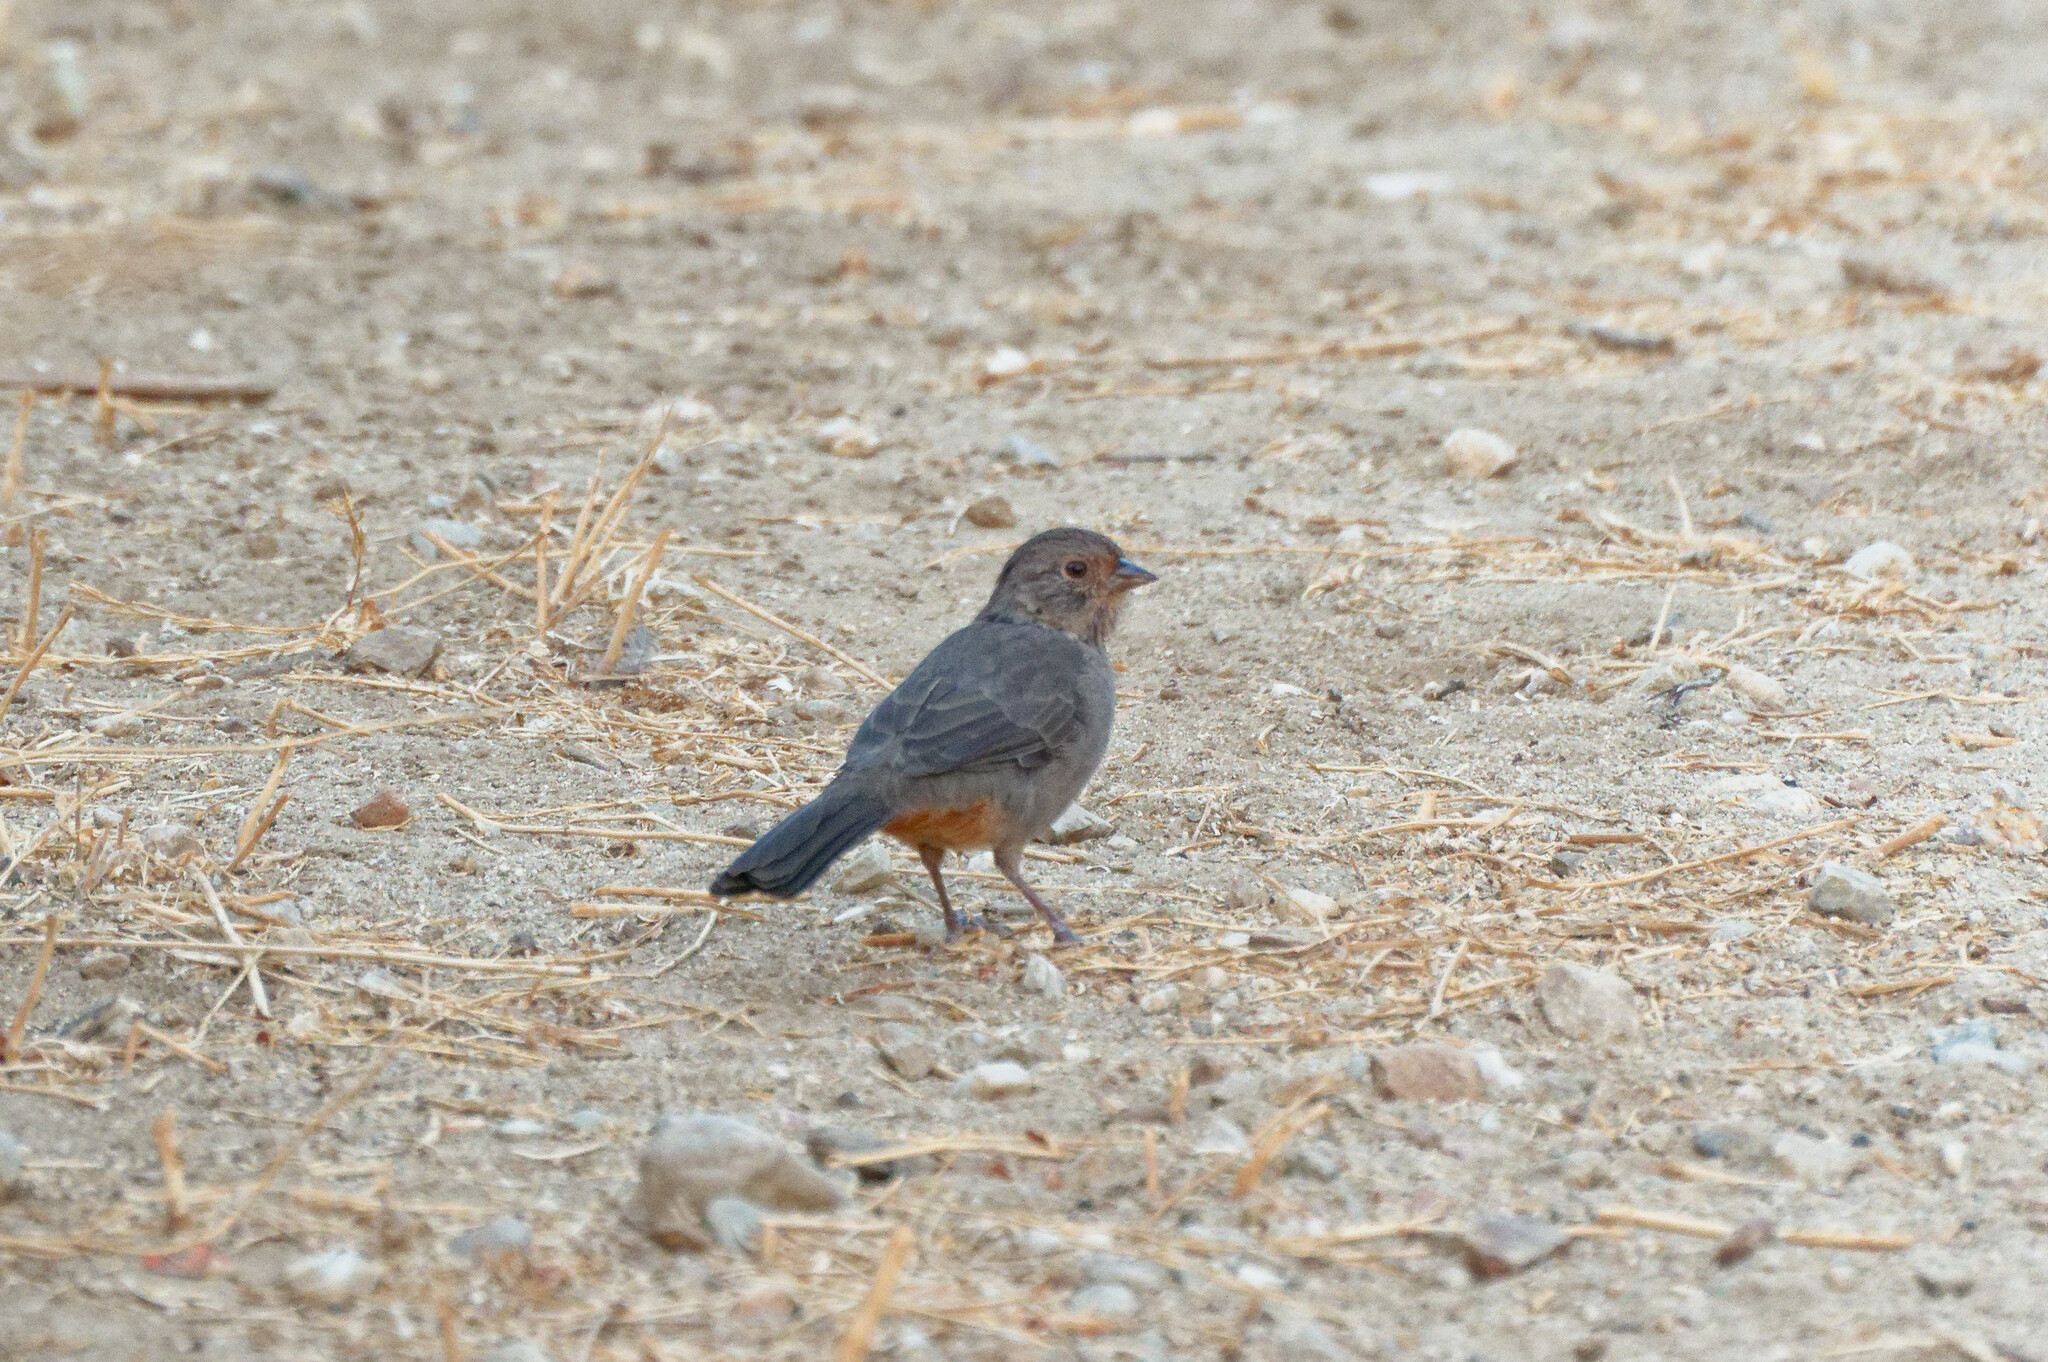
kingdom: Animalia
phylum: Chordata
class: Aves
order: Passeriformes
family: Passerellidae
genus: Melozone
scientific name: Melozone crissalis
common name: California towhee
